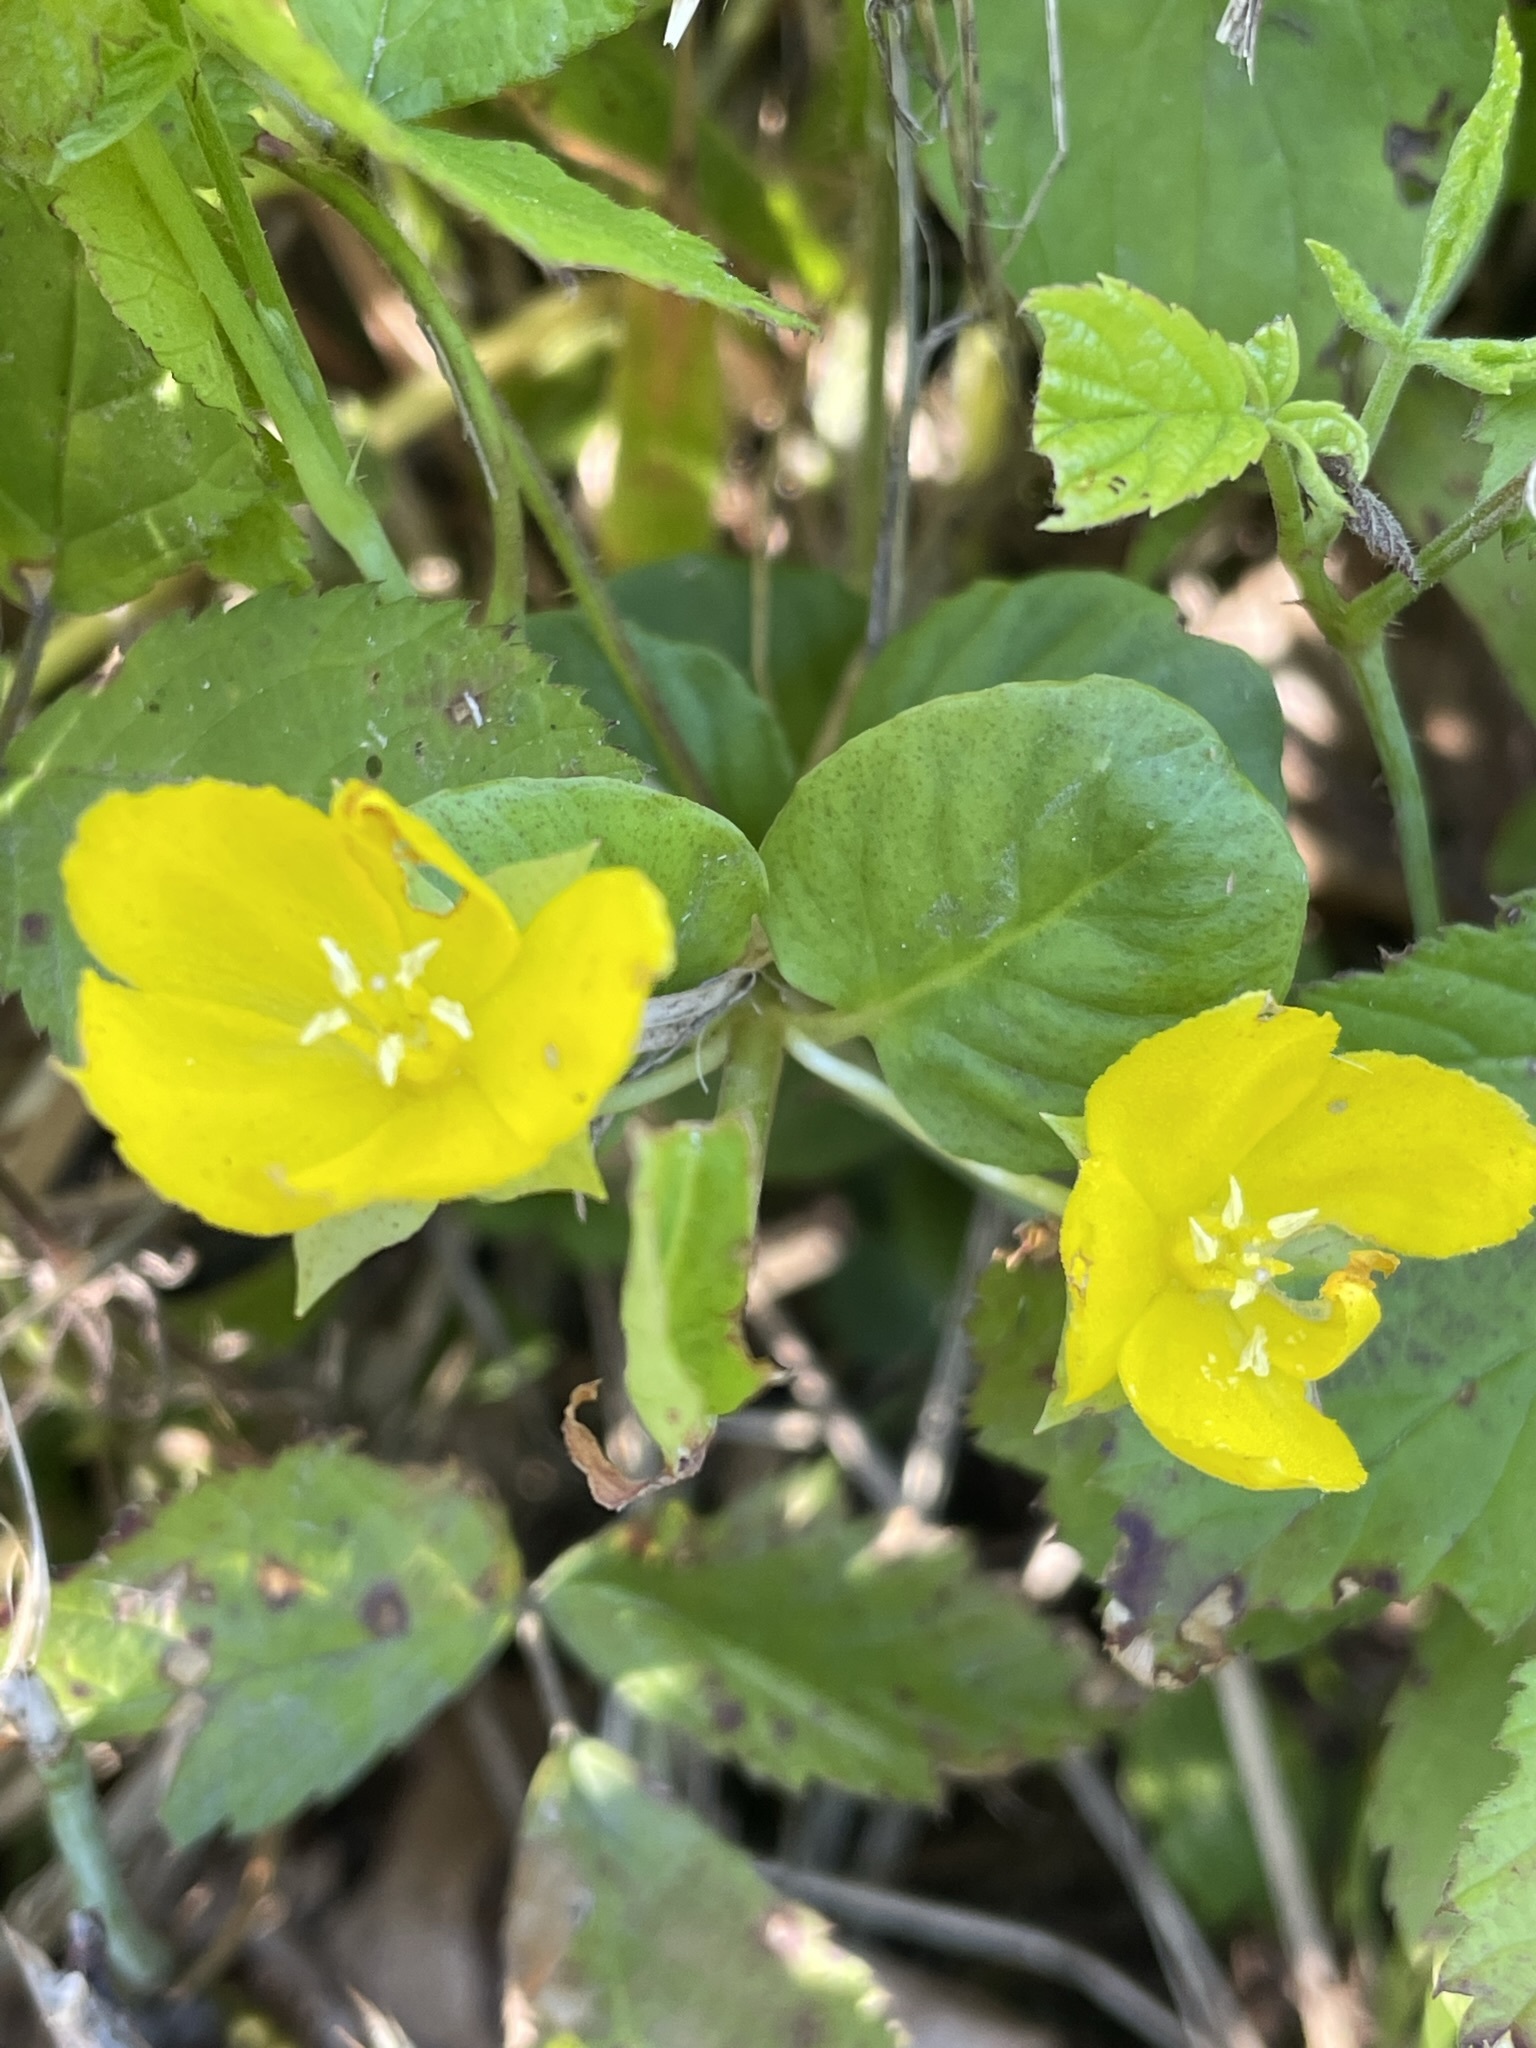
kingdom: Plantae
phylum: Tracheophyta
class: Magnoliopsida
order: Ericales
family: Primulaceae
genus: Lysimachia
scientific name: Lysimachia nummularia
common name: Moneywort
